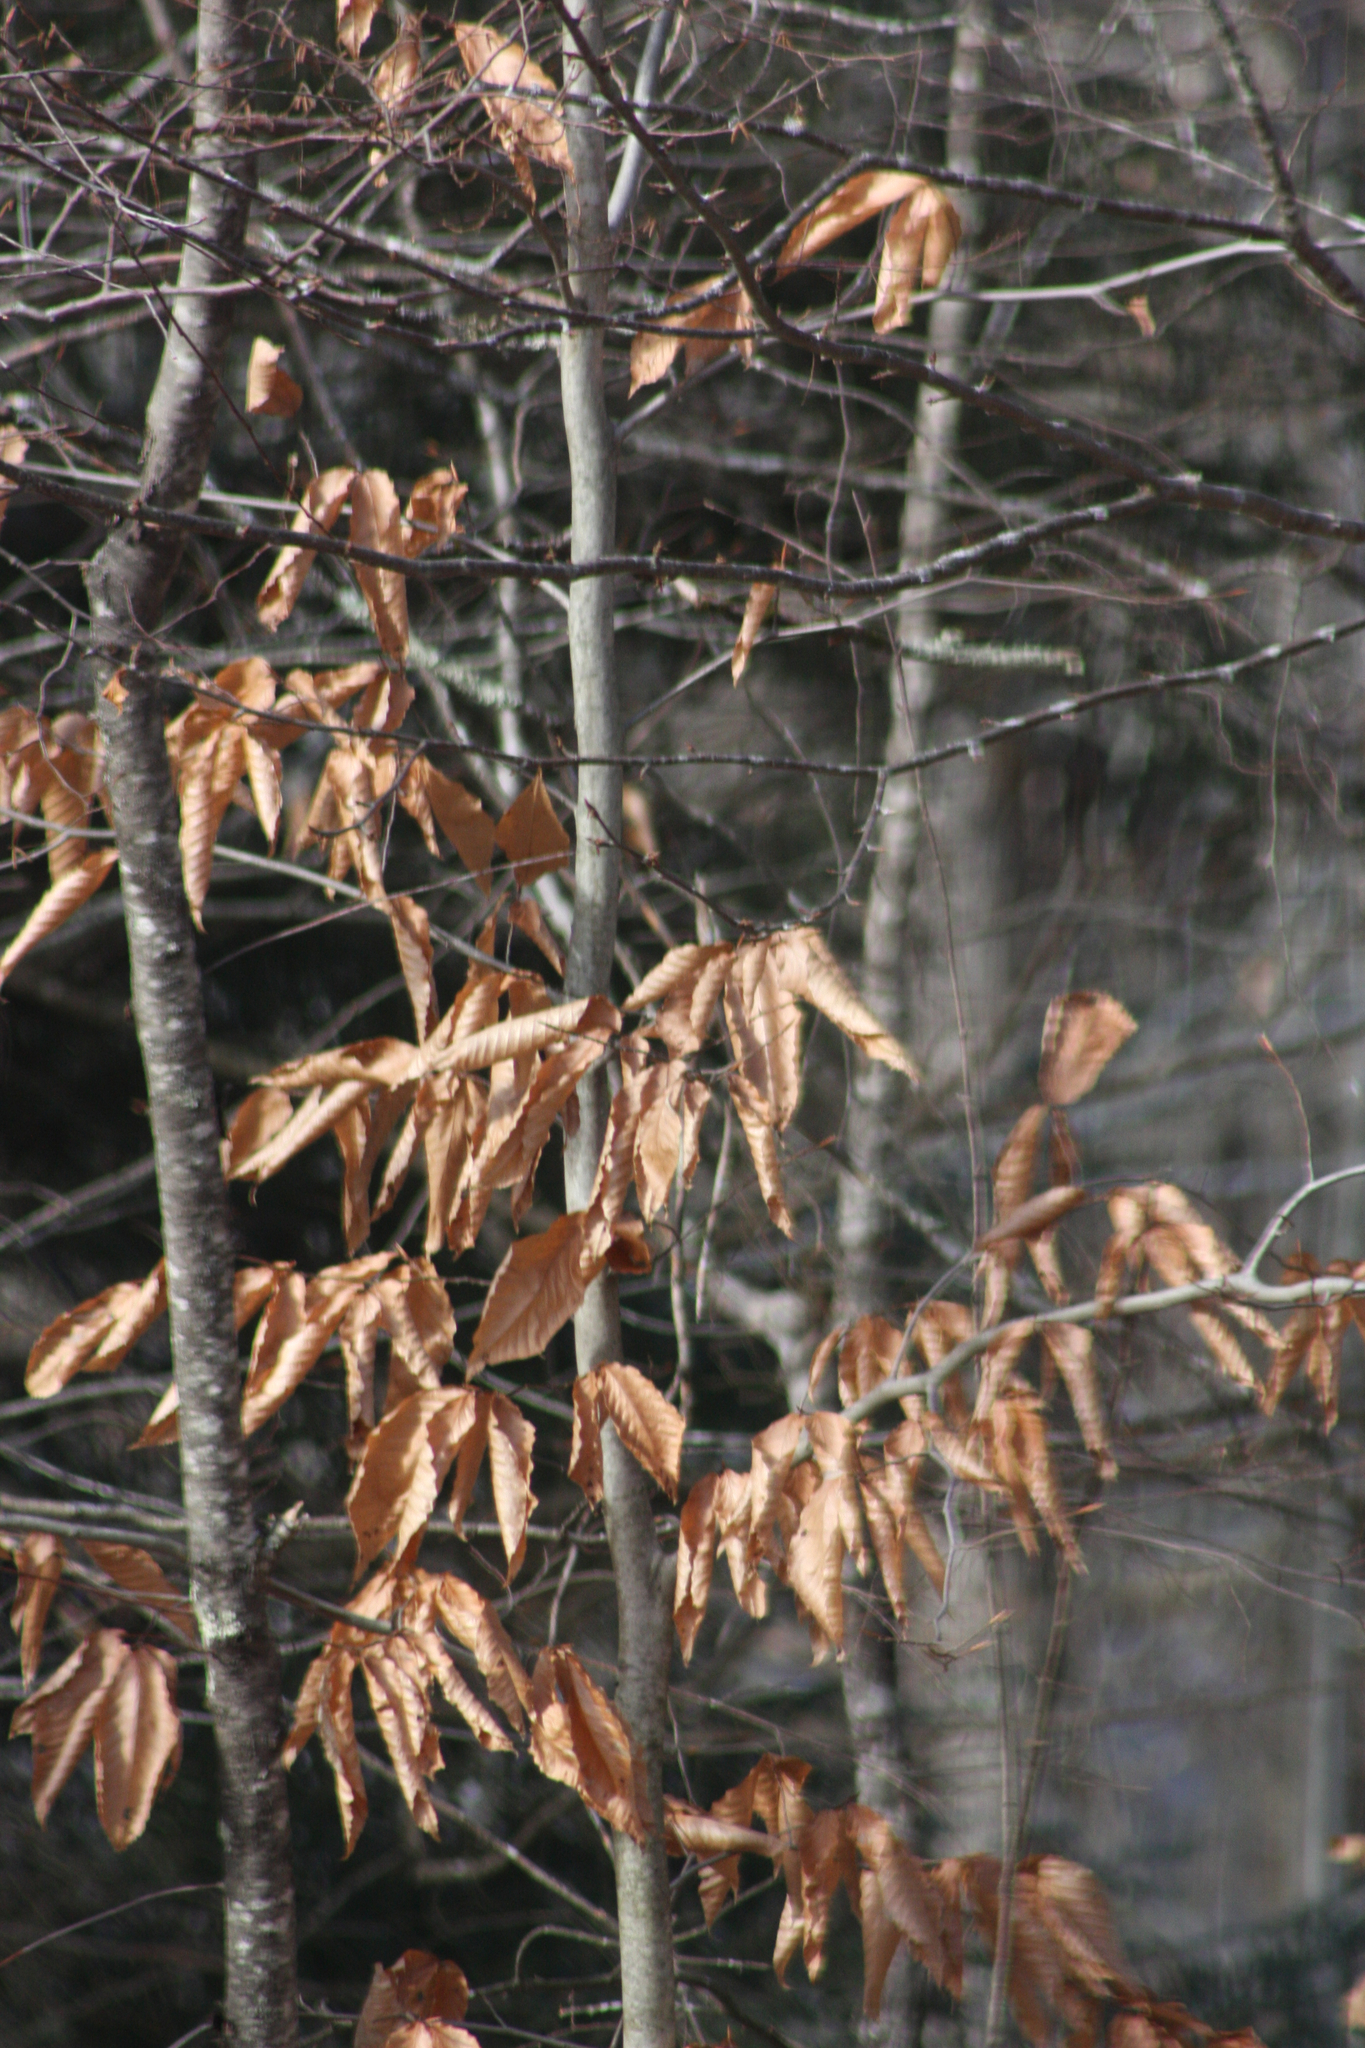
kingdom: Plantae
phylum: Tracheophyta
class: Magnoliopsida
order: Fagales
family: Fagaceae
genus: Fagus
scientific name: Fagus grandifolia
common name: American beech
